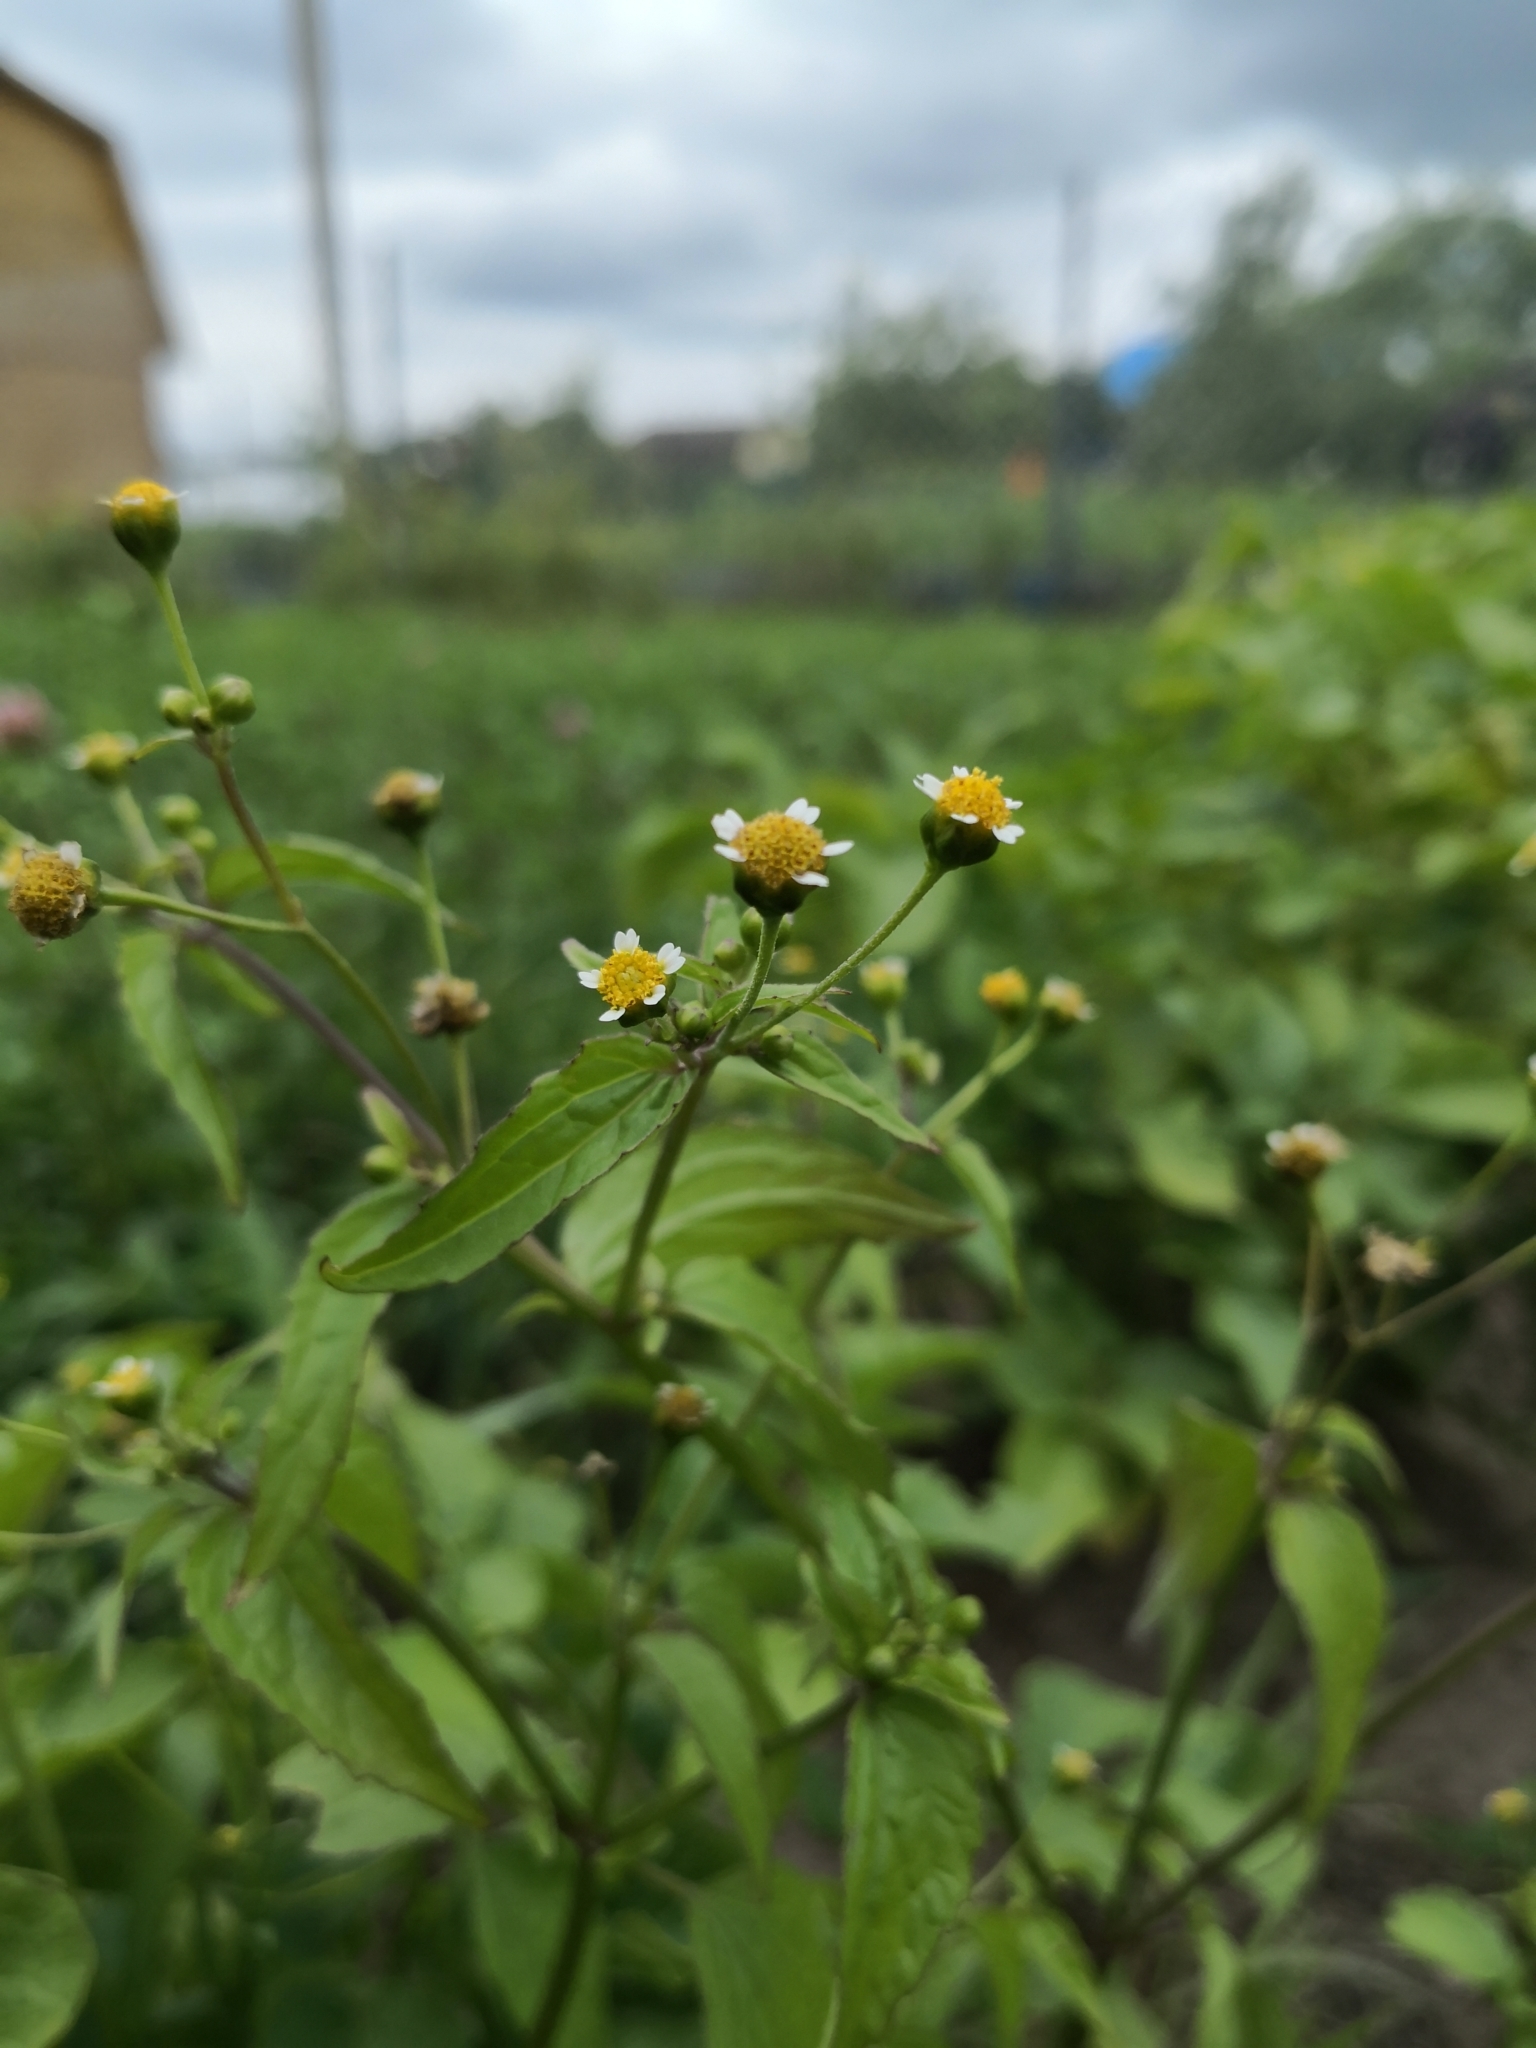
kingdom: Plantae
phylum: Tracheophyta
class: Magnoliopsida
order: Asterales
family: Asteraceae
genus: Galinsoga
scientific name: Galinsoga parviflora
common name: Gallant soldier
